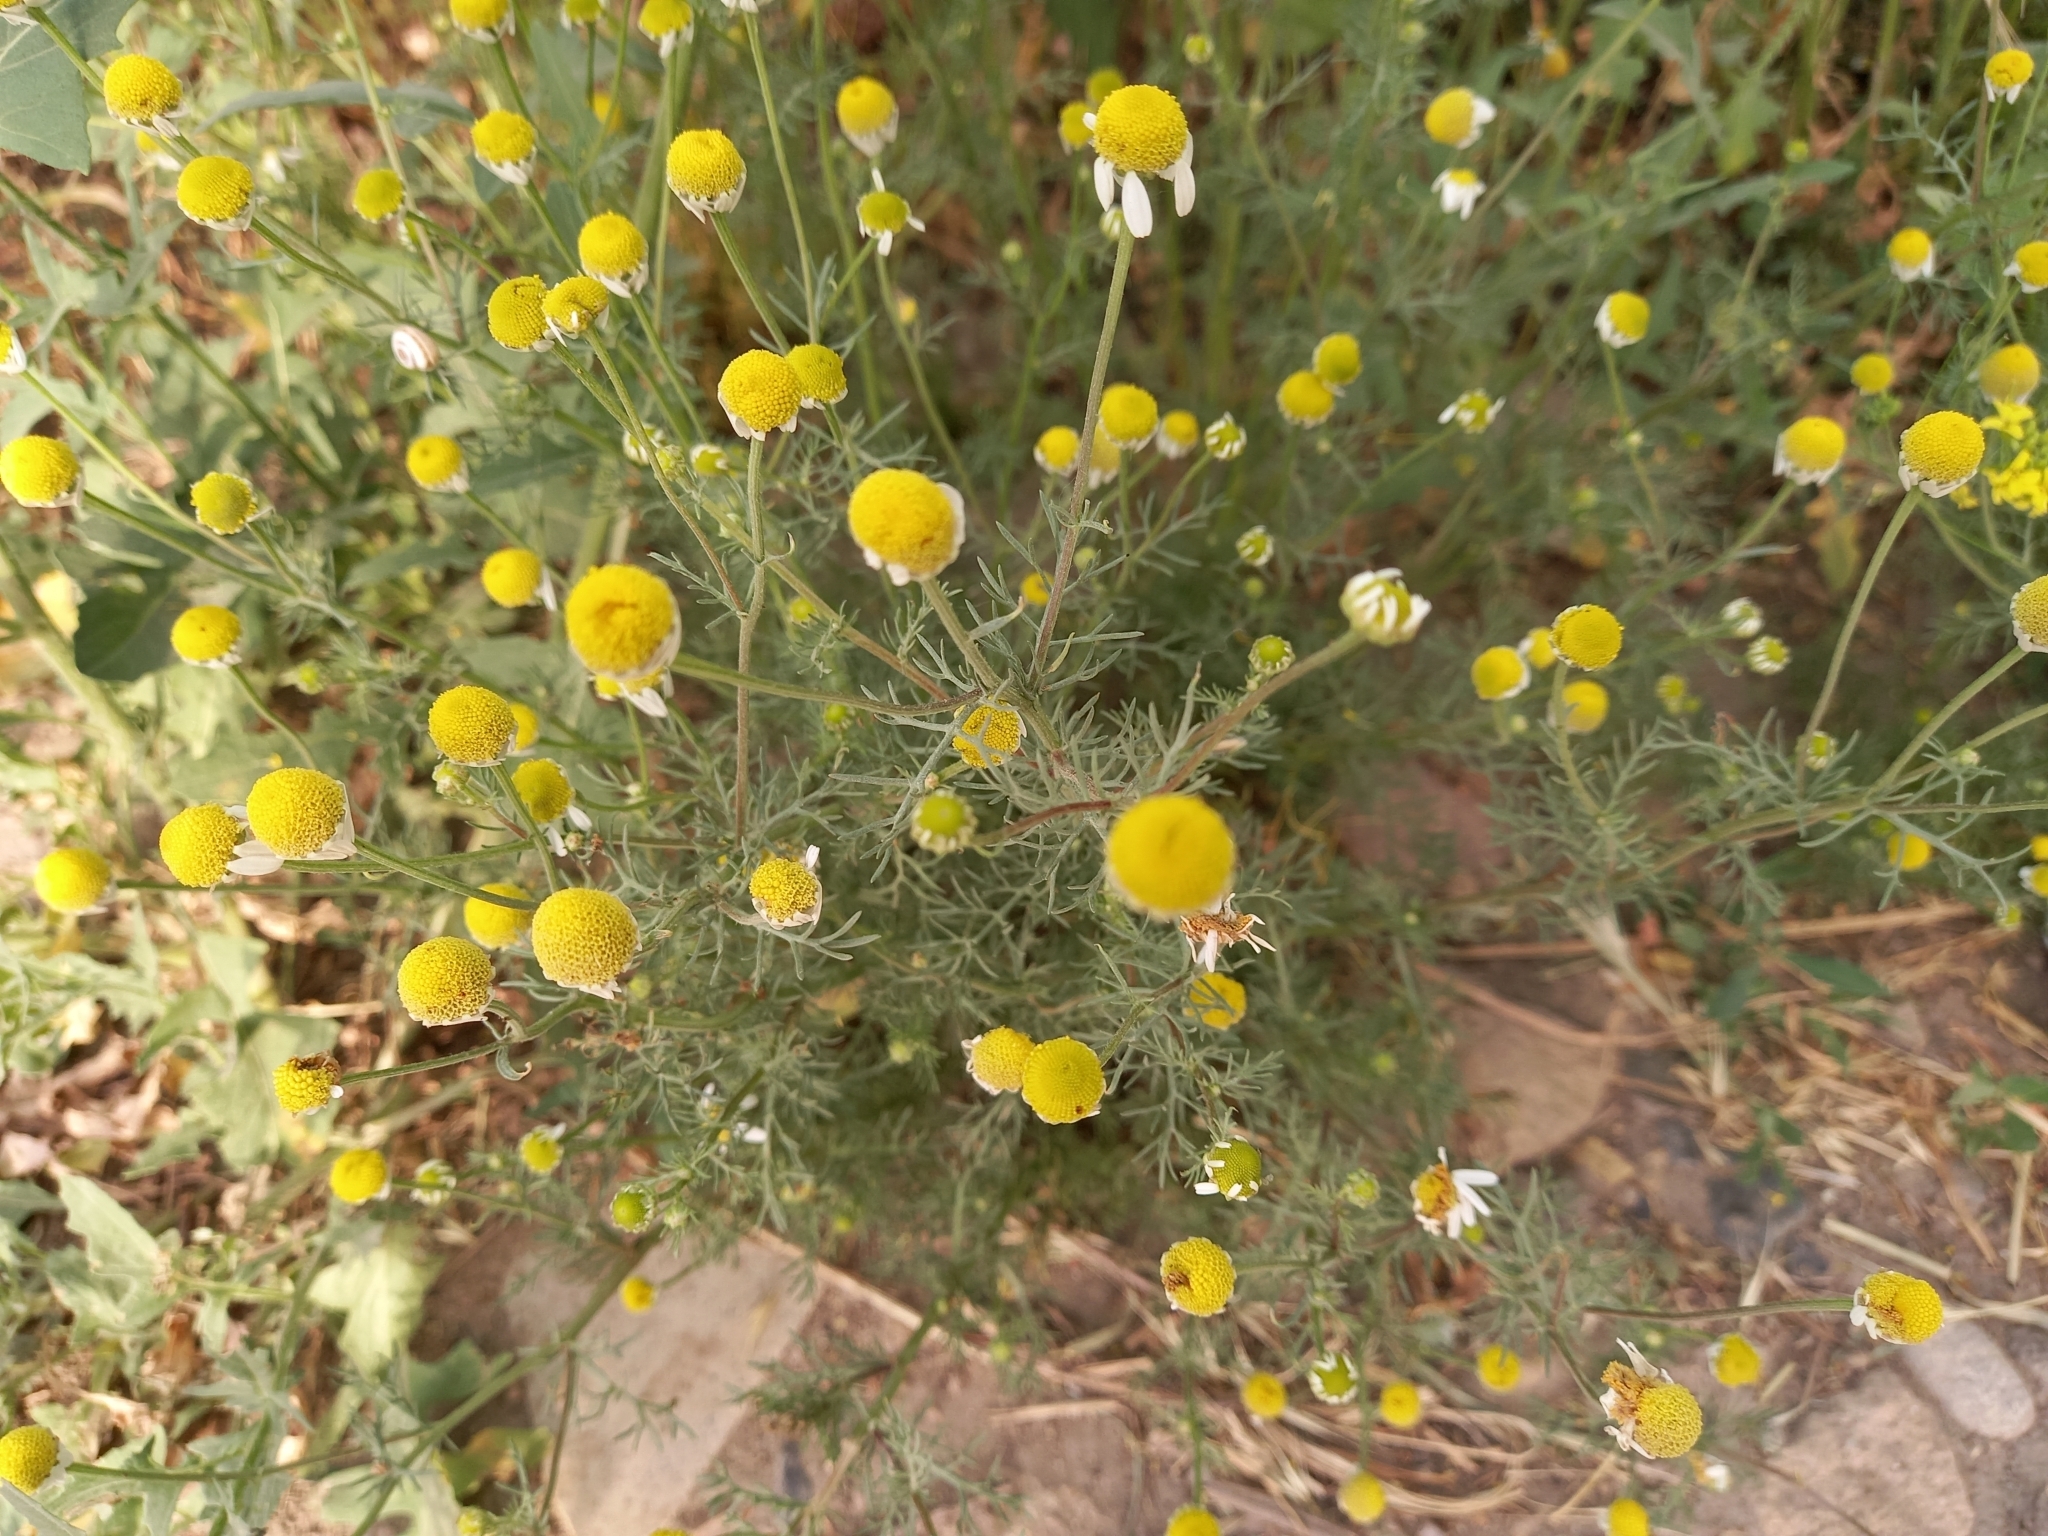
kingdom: Plantae
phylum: Tracheophyta
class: Magnoliopsida
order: Asterales
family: Asteraceae
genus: Matricaria
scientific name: Matricaria chamomilla
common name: Scented mayweed
